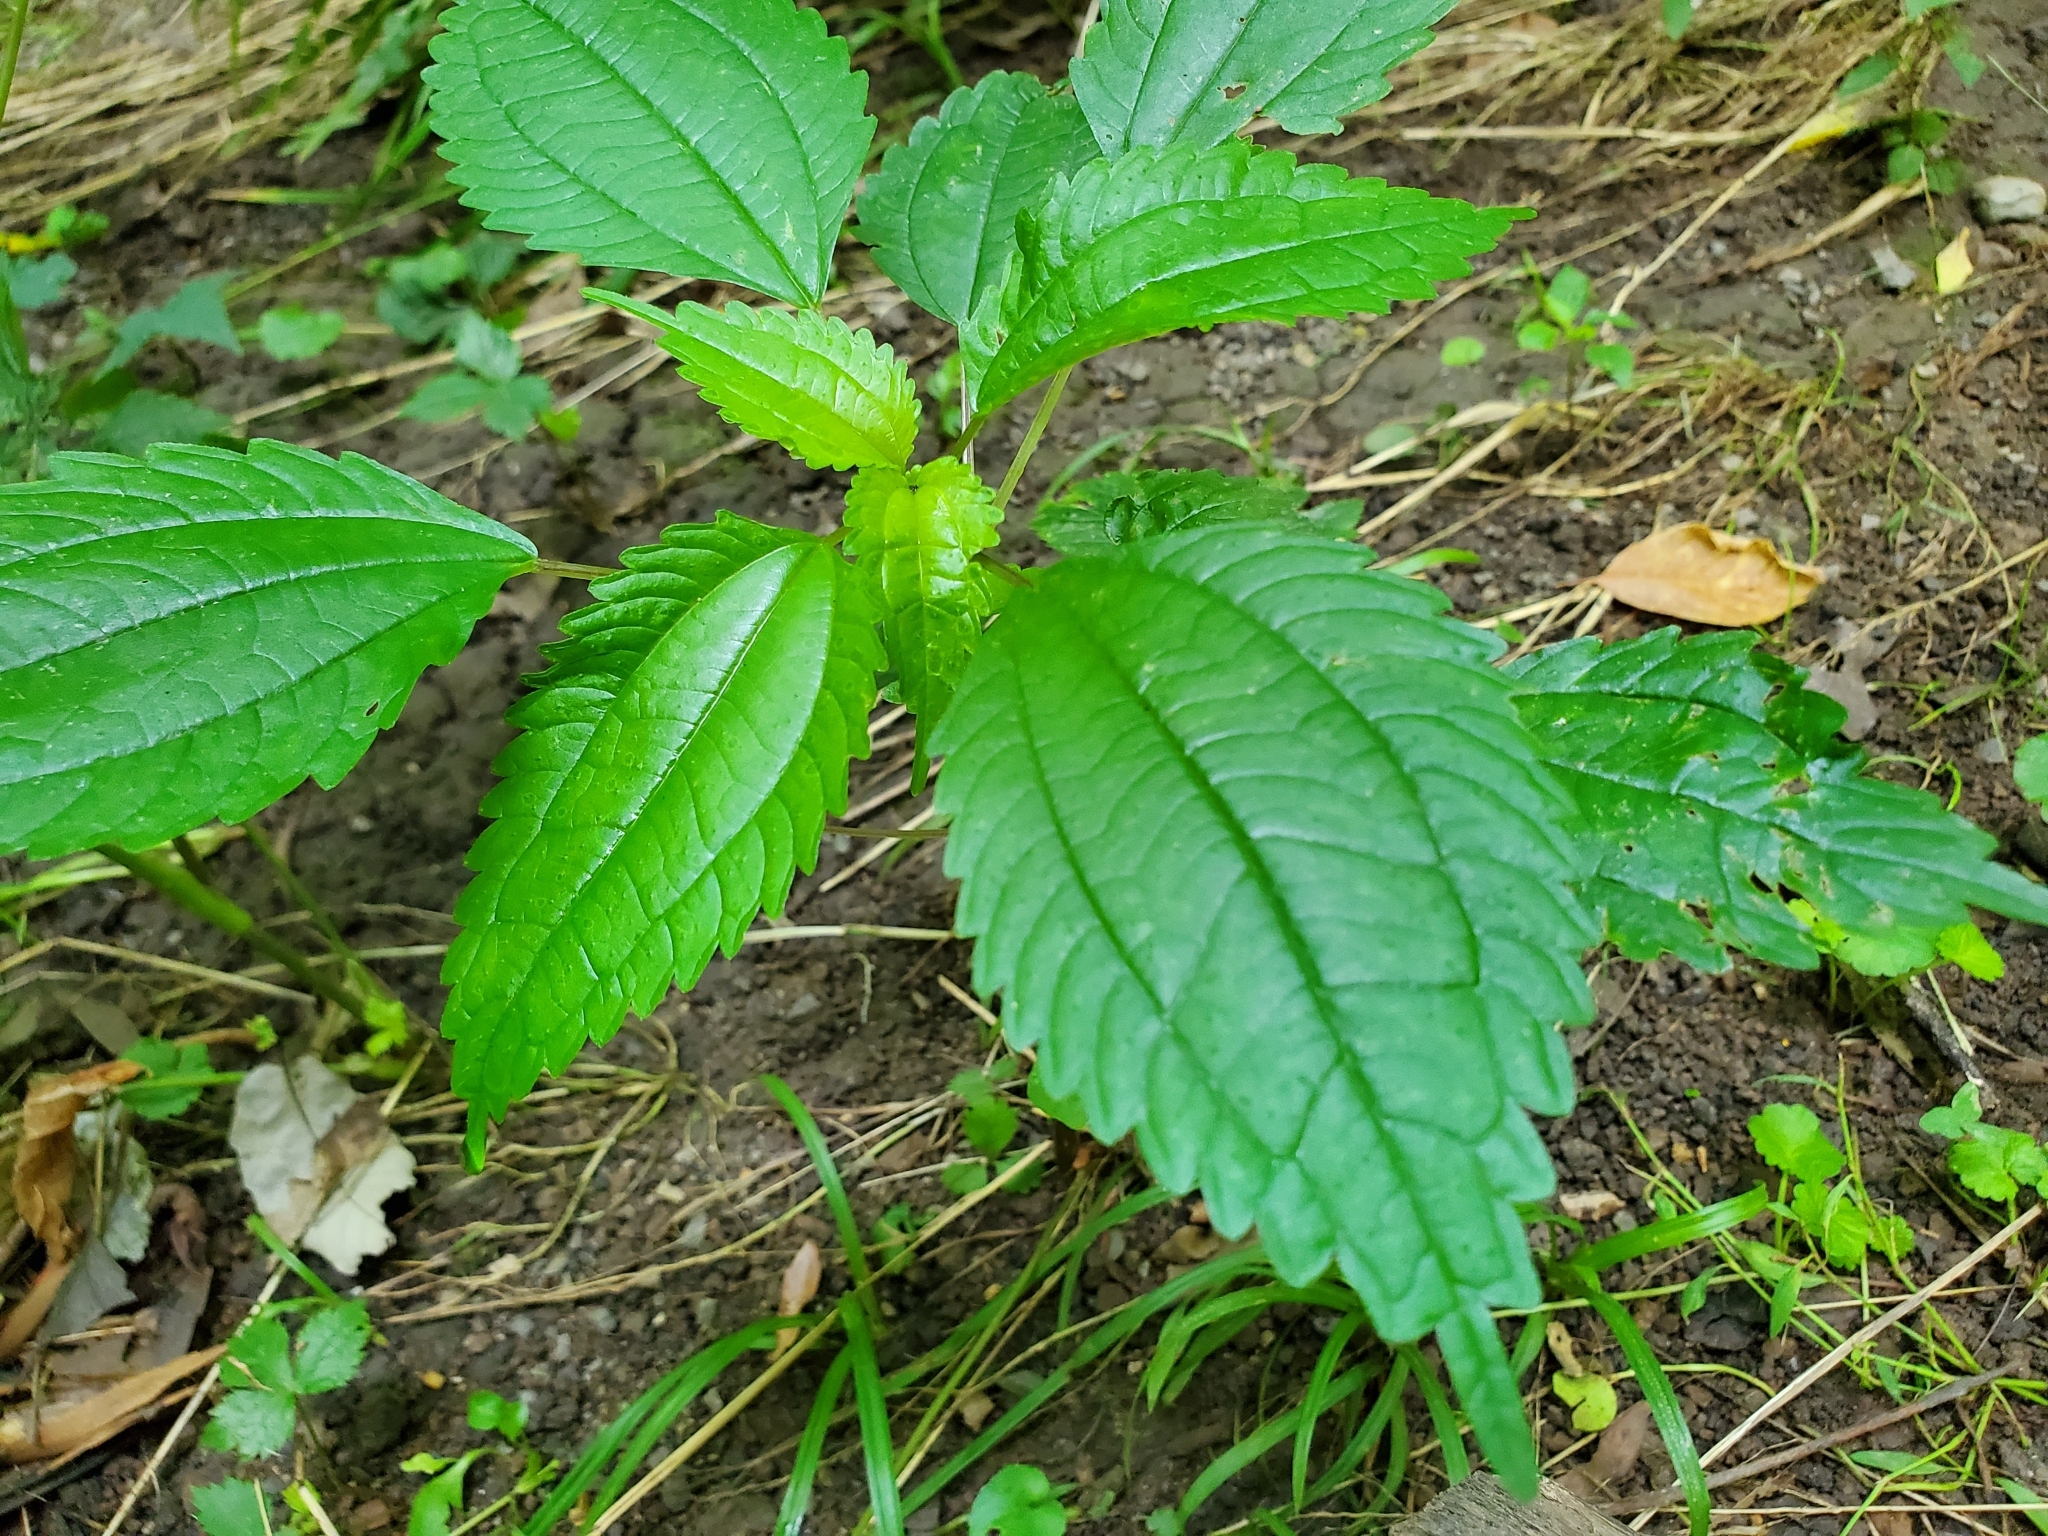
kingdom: Plantae
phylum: Tracheophyta
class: Magnoliopsida
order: Rosales
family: Urticaceae
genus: Pilea
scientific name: Pilea pumila
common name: Clearweed
